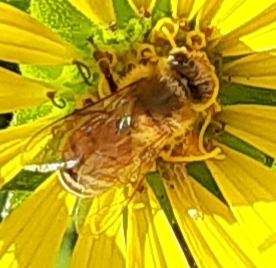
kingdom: Animalia
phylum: Arthropoda
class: Insecta
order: Hymenoptera
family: Apidae
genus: Apis
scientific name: Apis mellifera
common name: Honey bee
